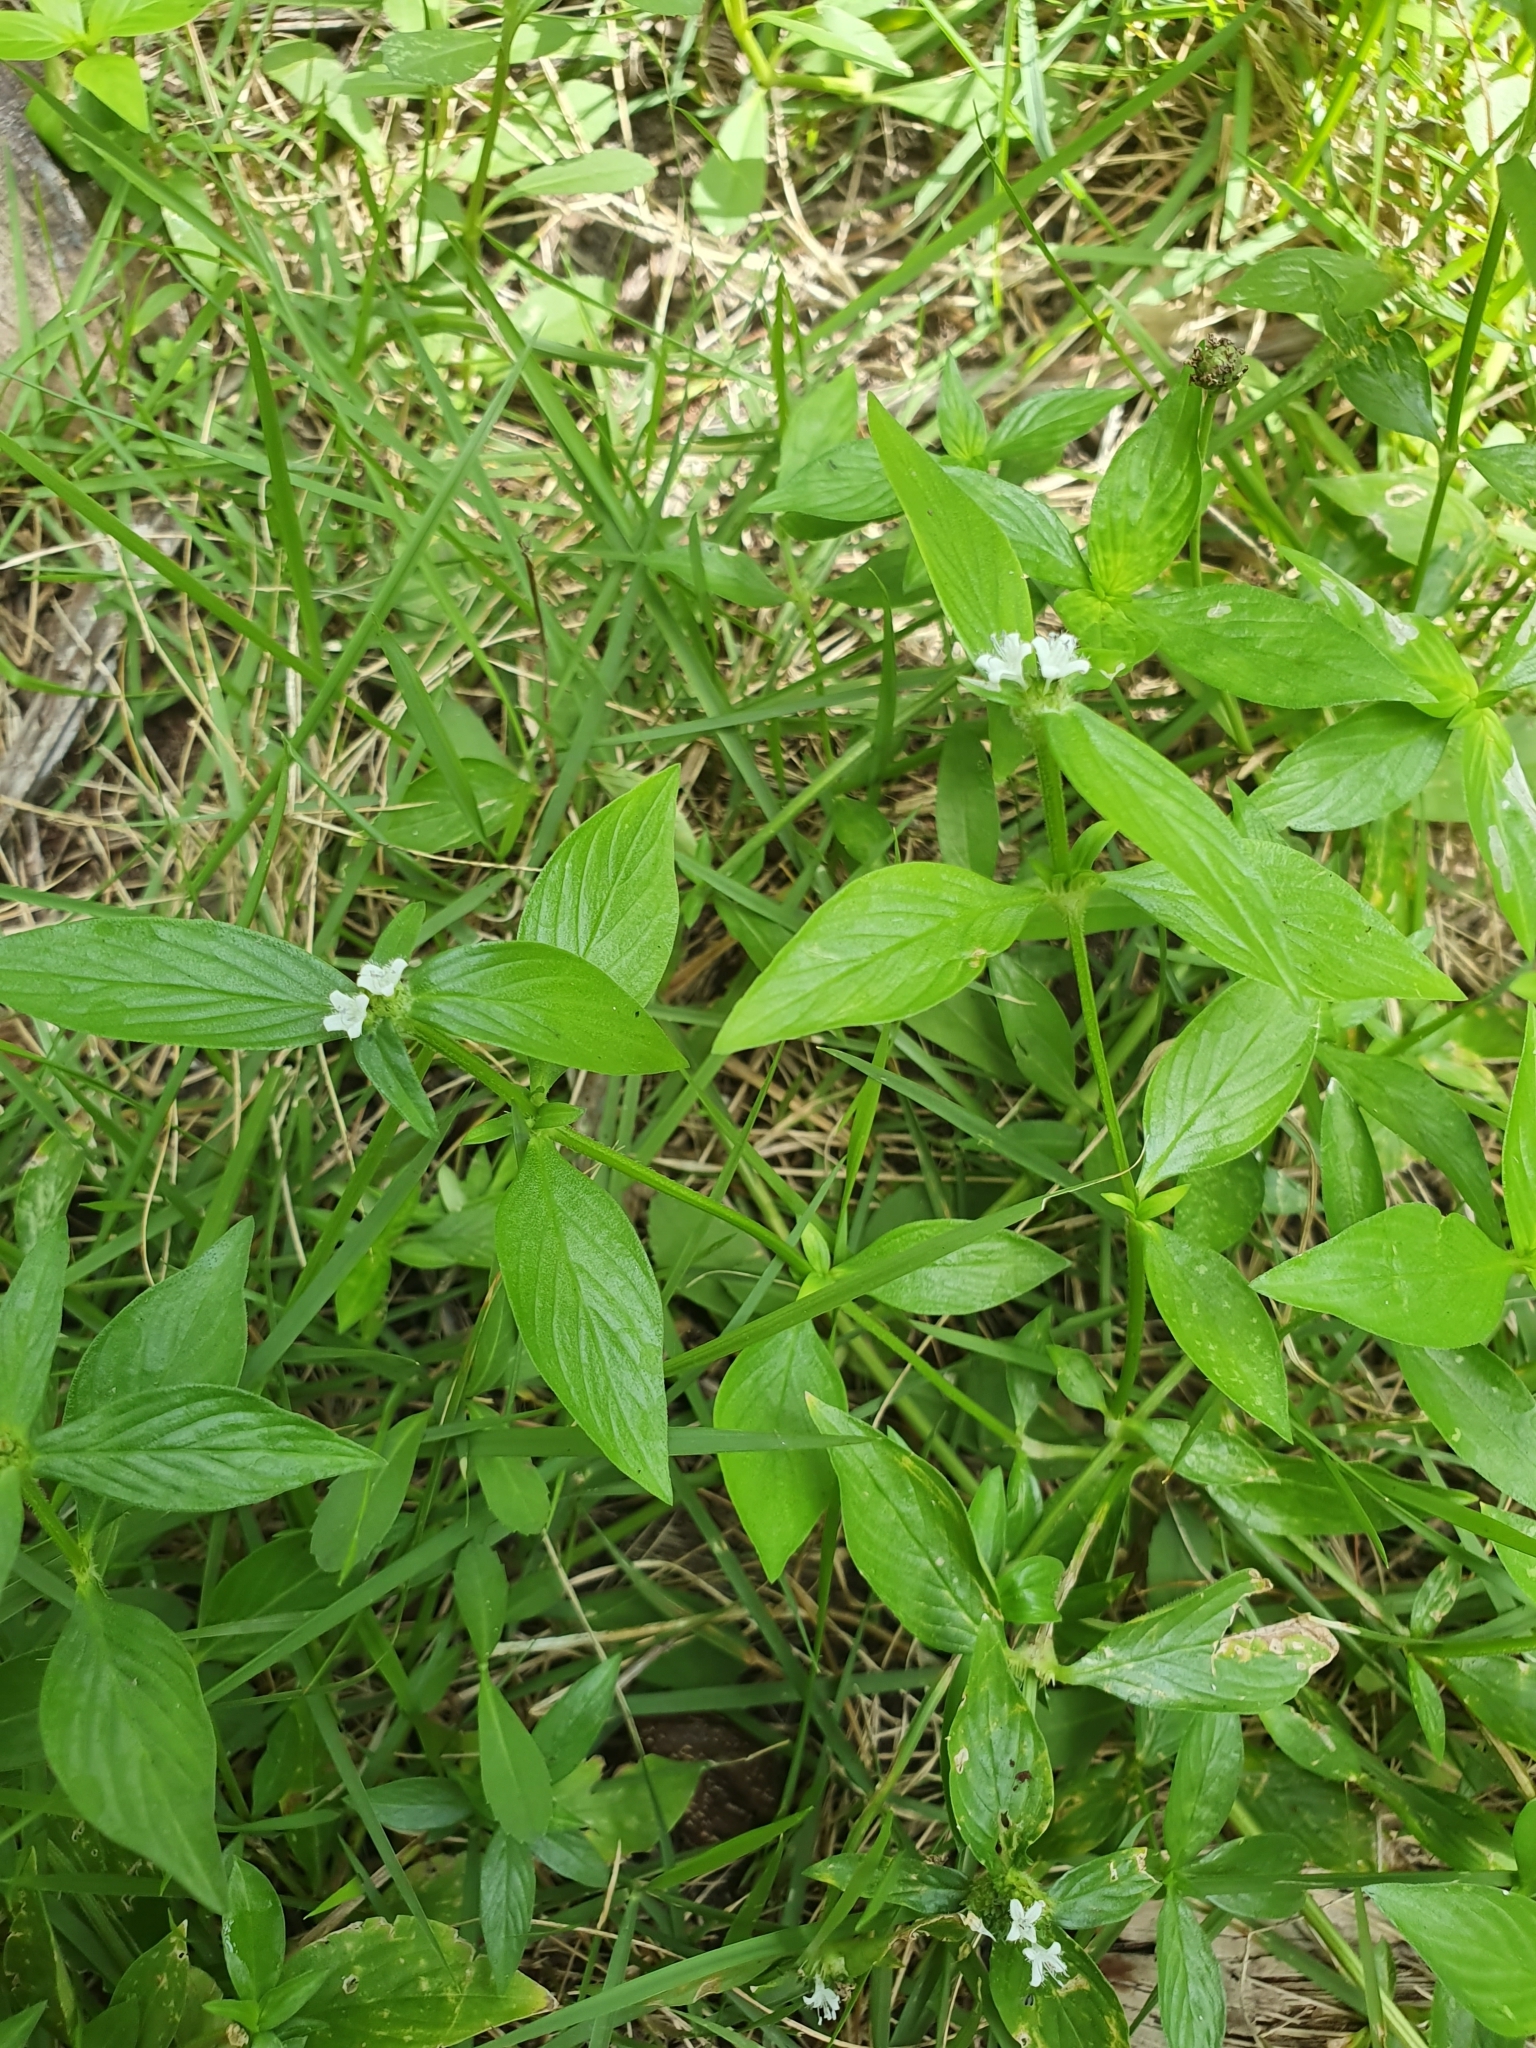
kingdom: Plantae
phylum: Tracheophyta
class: Magnoliopsida
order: Gentianales
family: Rubiaceae
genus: Spermacoce
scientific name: Spermacoce remota
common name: Woodland false buttonweed
